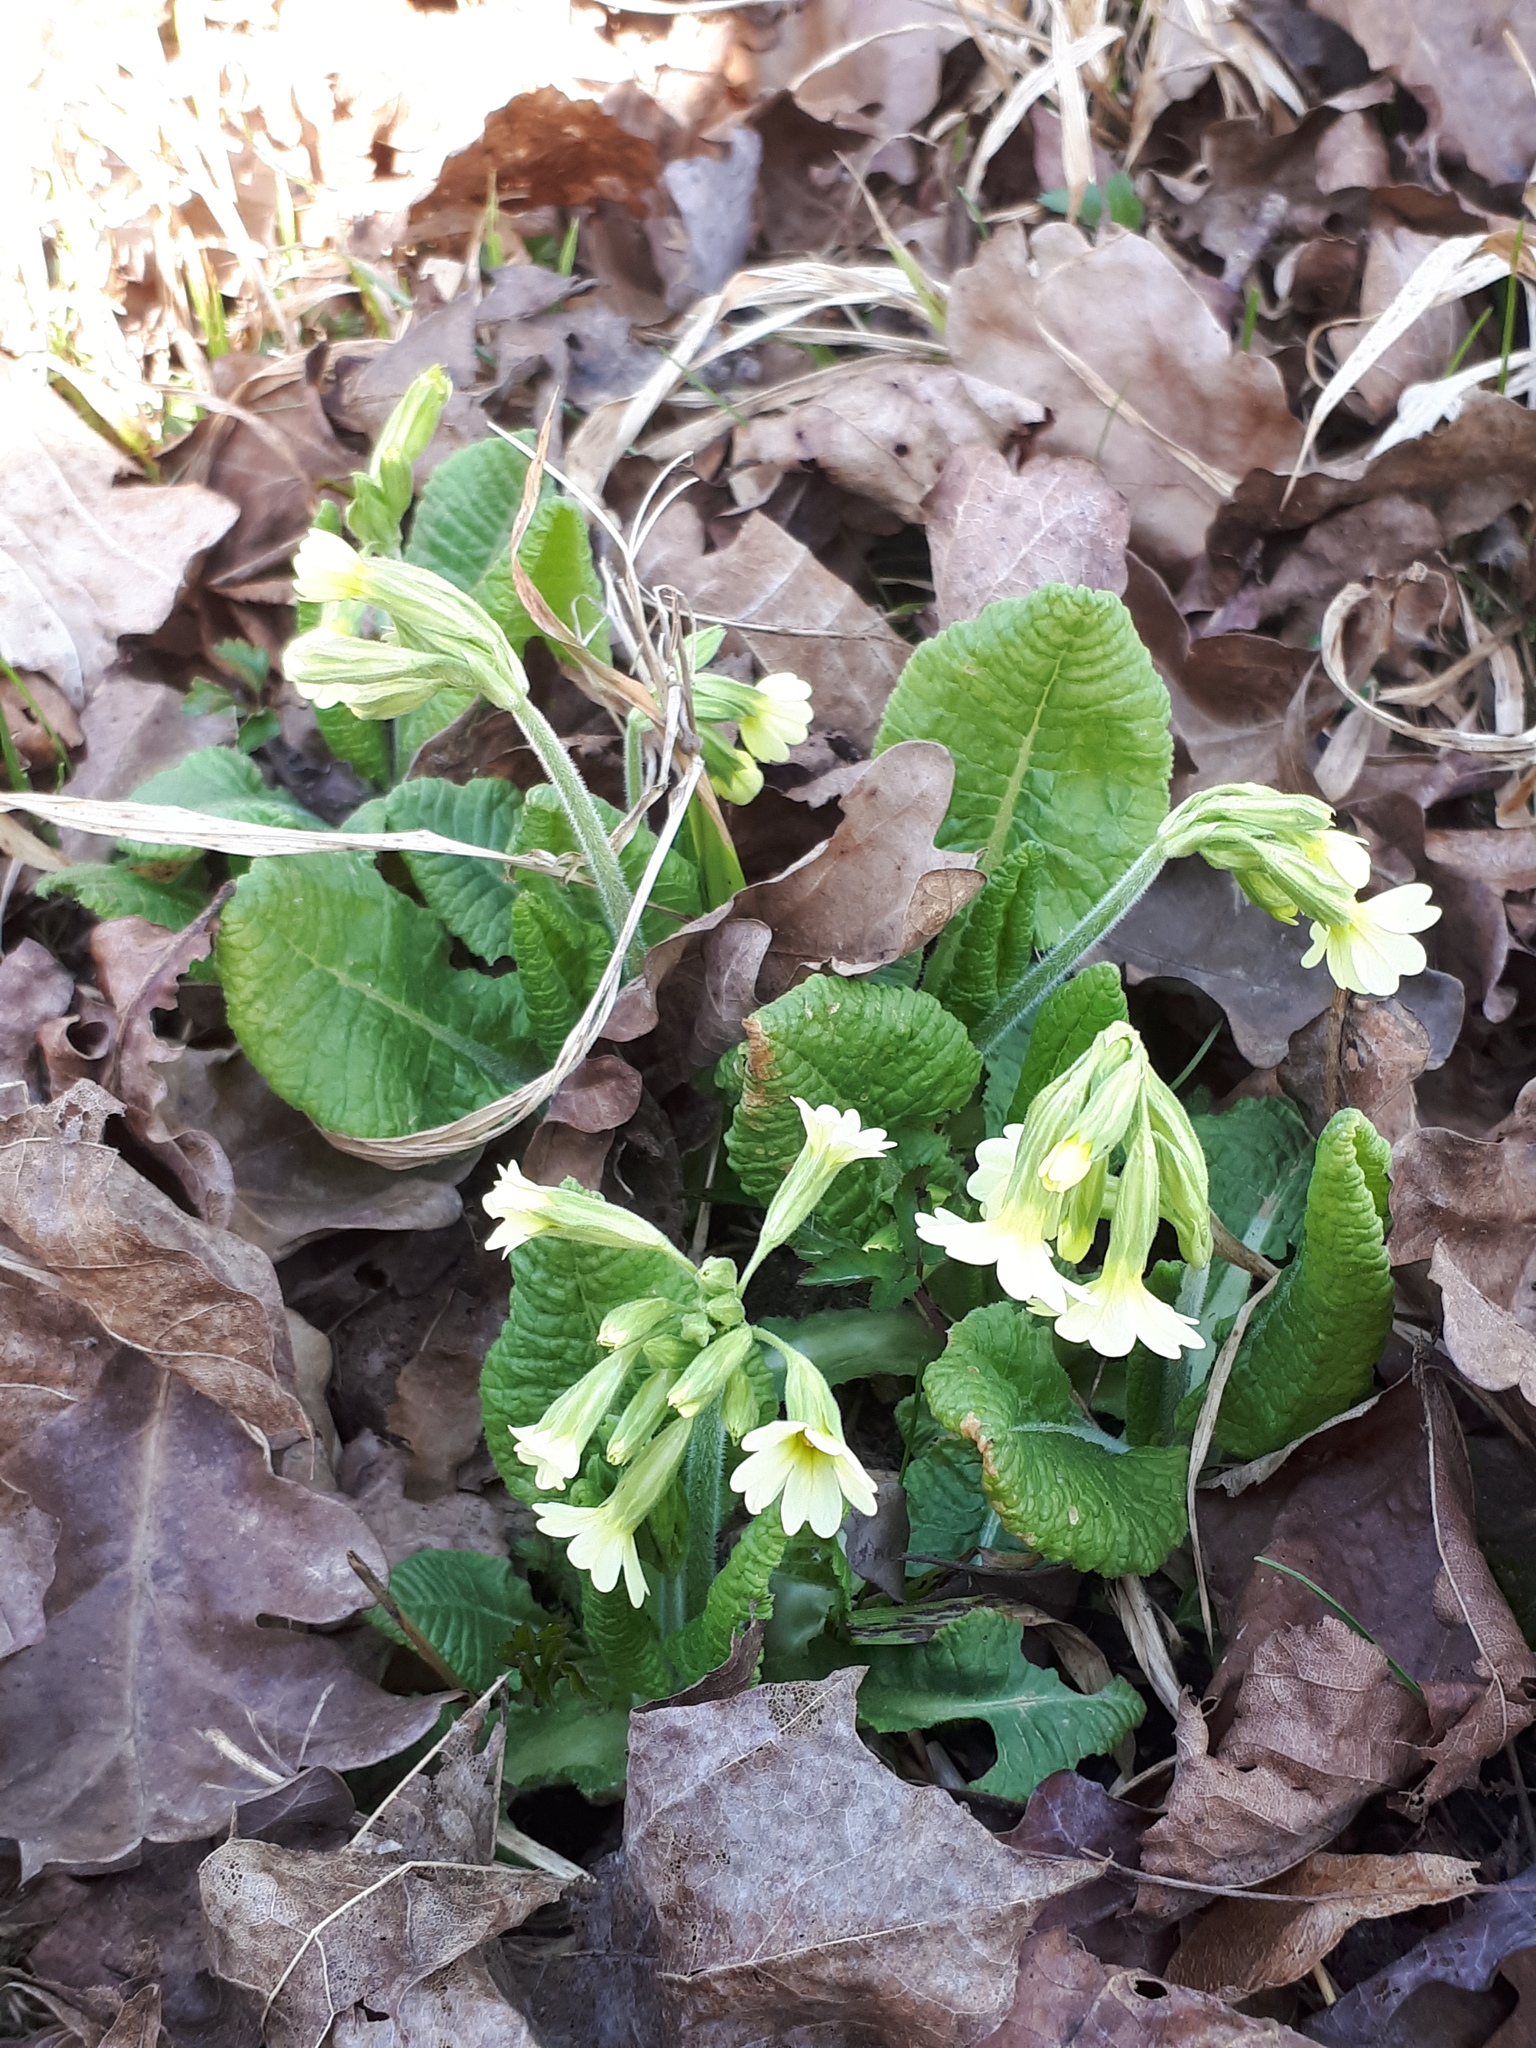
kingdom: Plantae
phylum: Tracheophyta
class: Magnoliopsida
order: Ericales
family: Primulaceae
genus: Primula
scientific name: Primula elatior
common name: Oxlip
